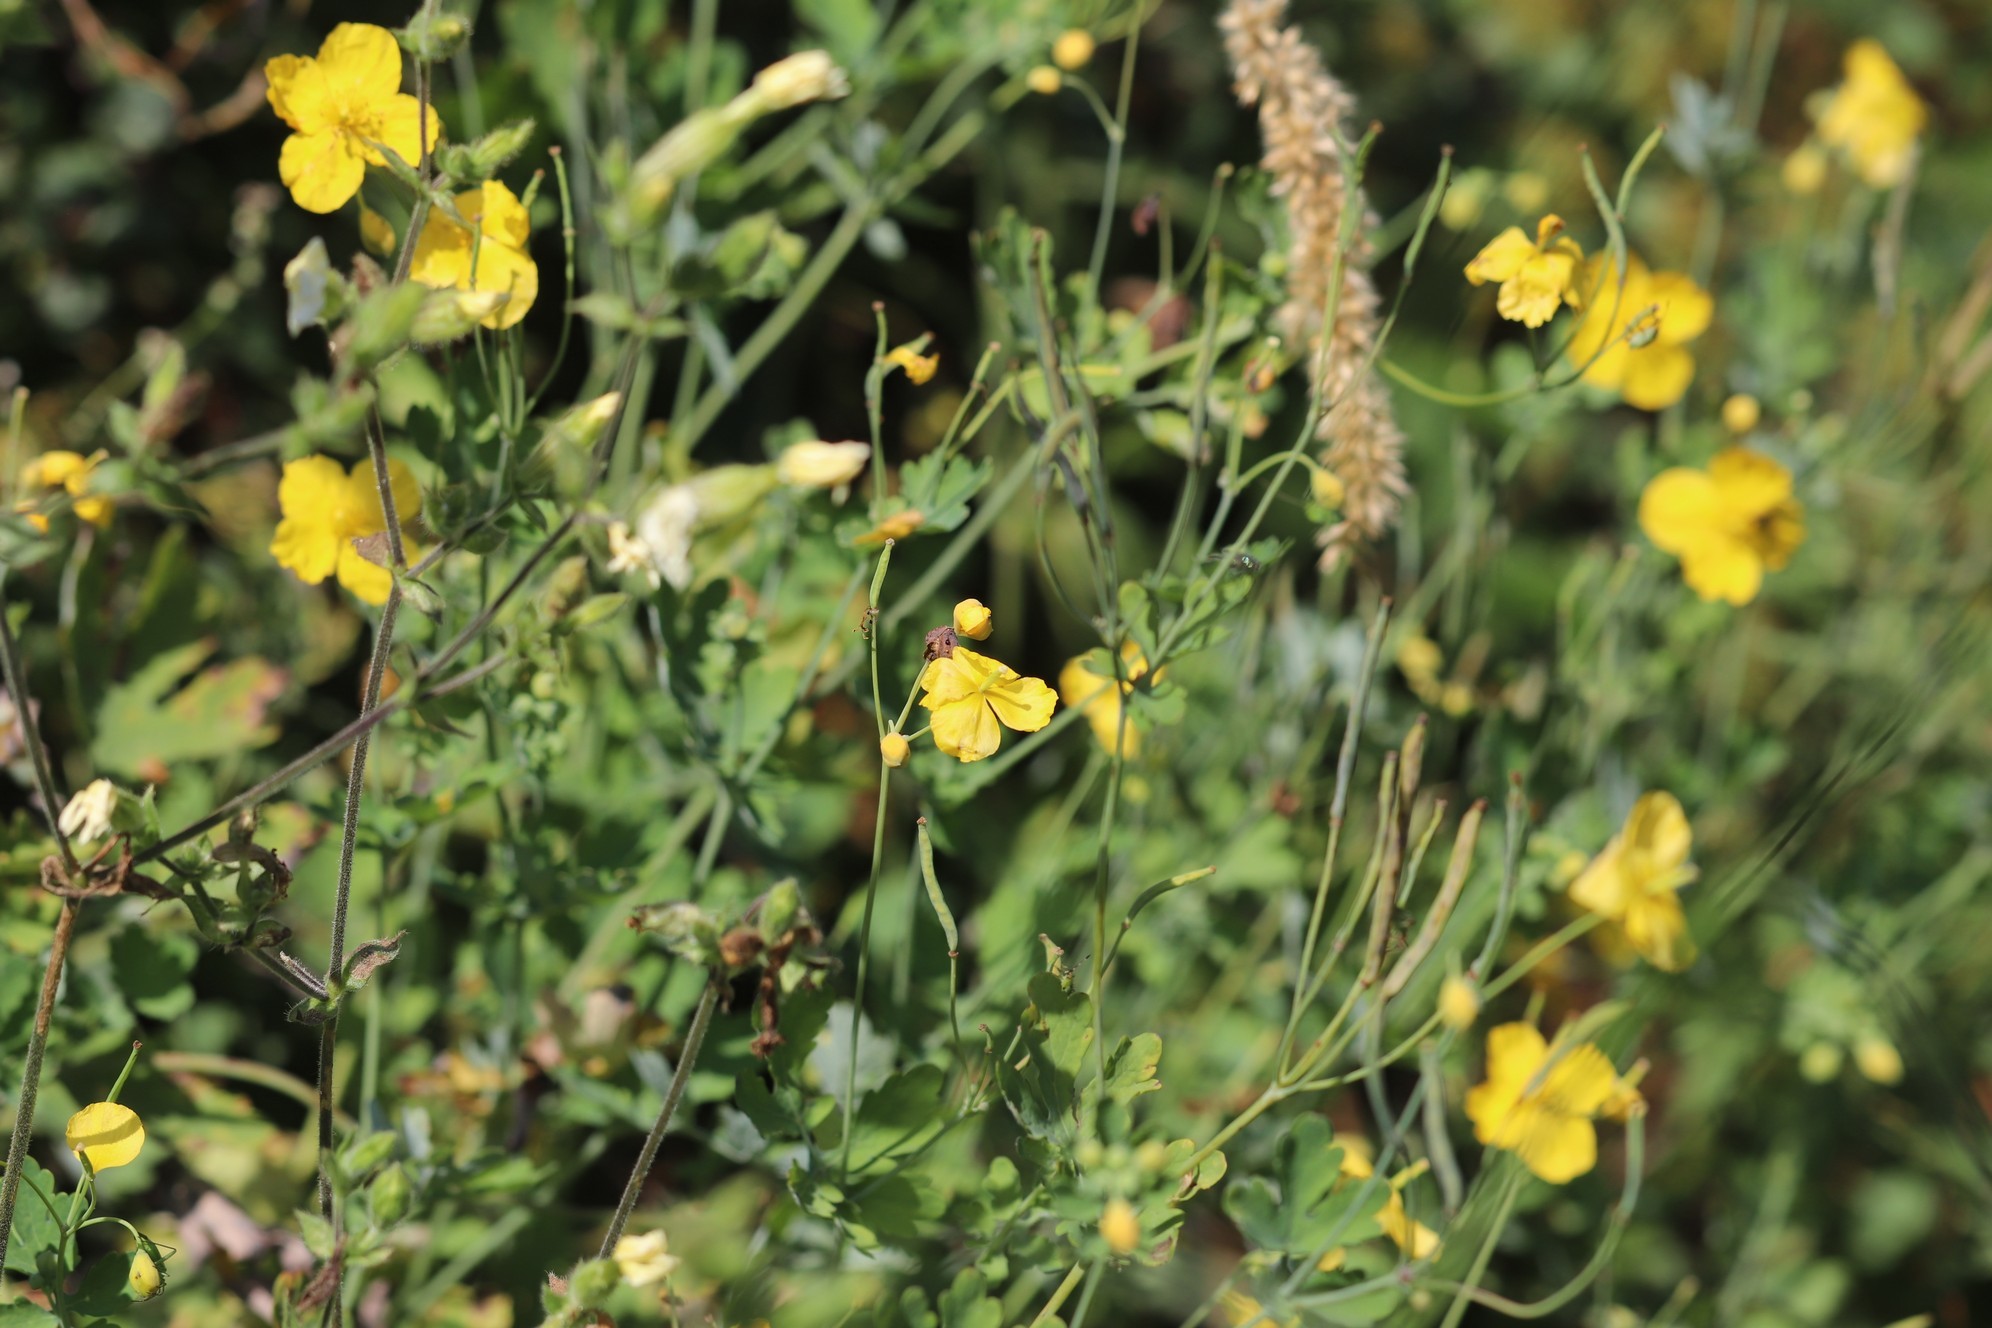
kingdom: Plantae
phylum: Tracheophyta
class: Magnoliopsida
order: Ranunculales
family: Papaveraceae
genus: Chelidonium
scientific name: Chelidonium majus
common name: Greater celandine
